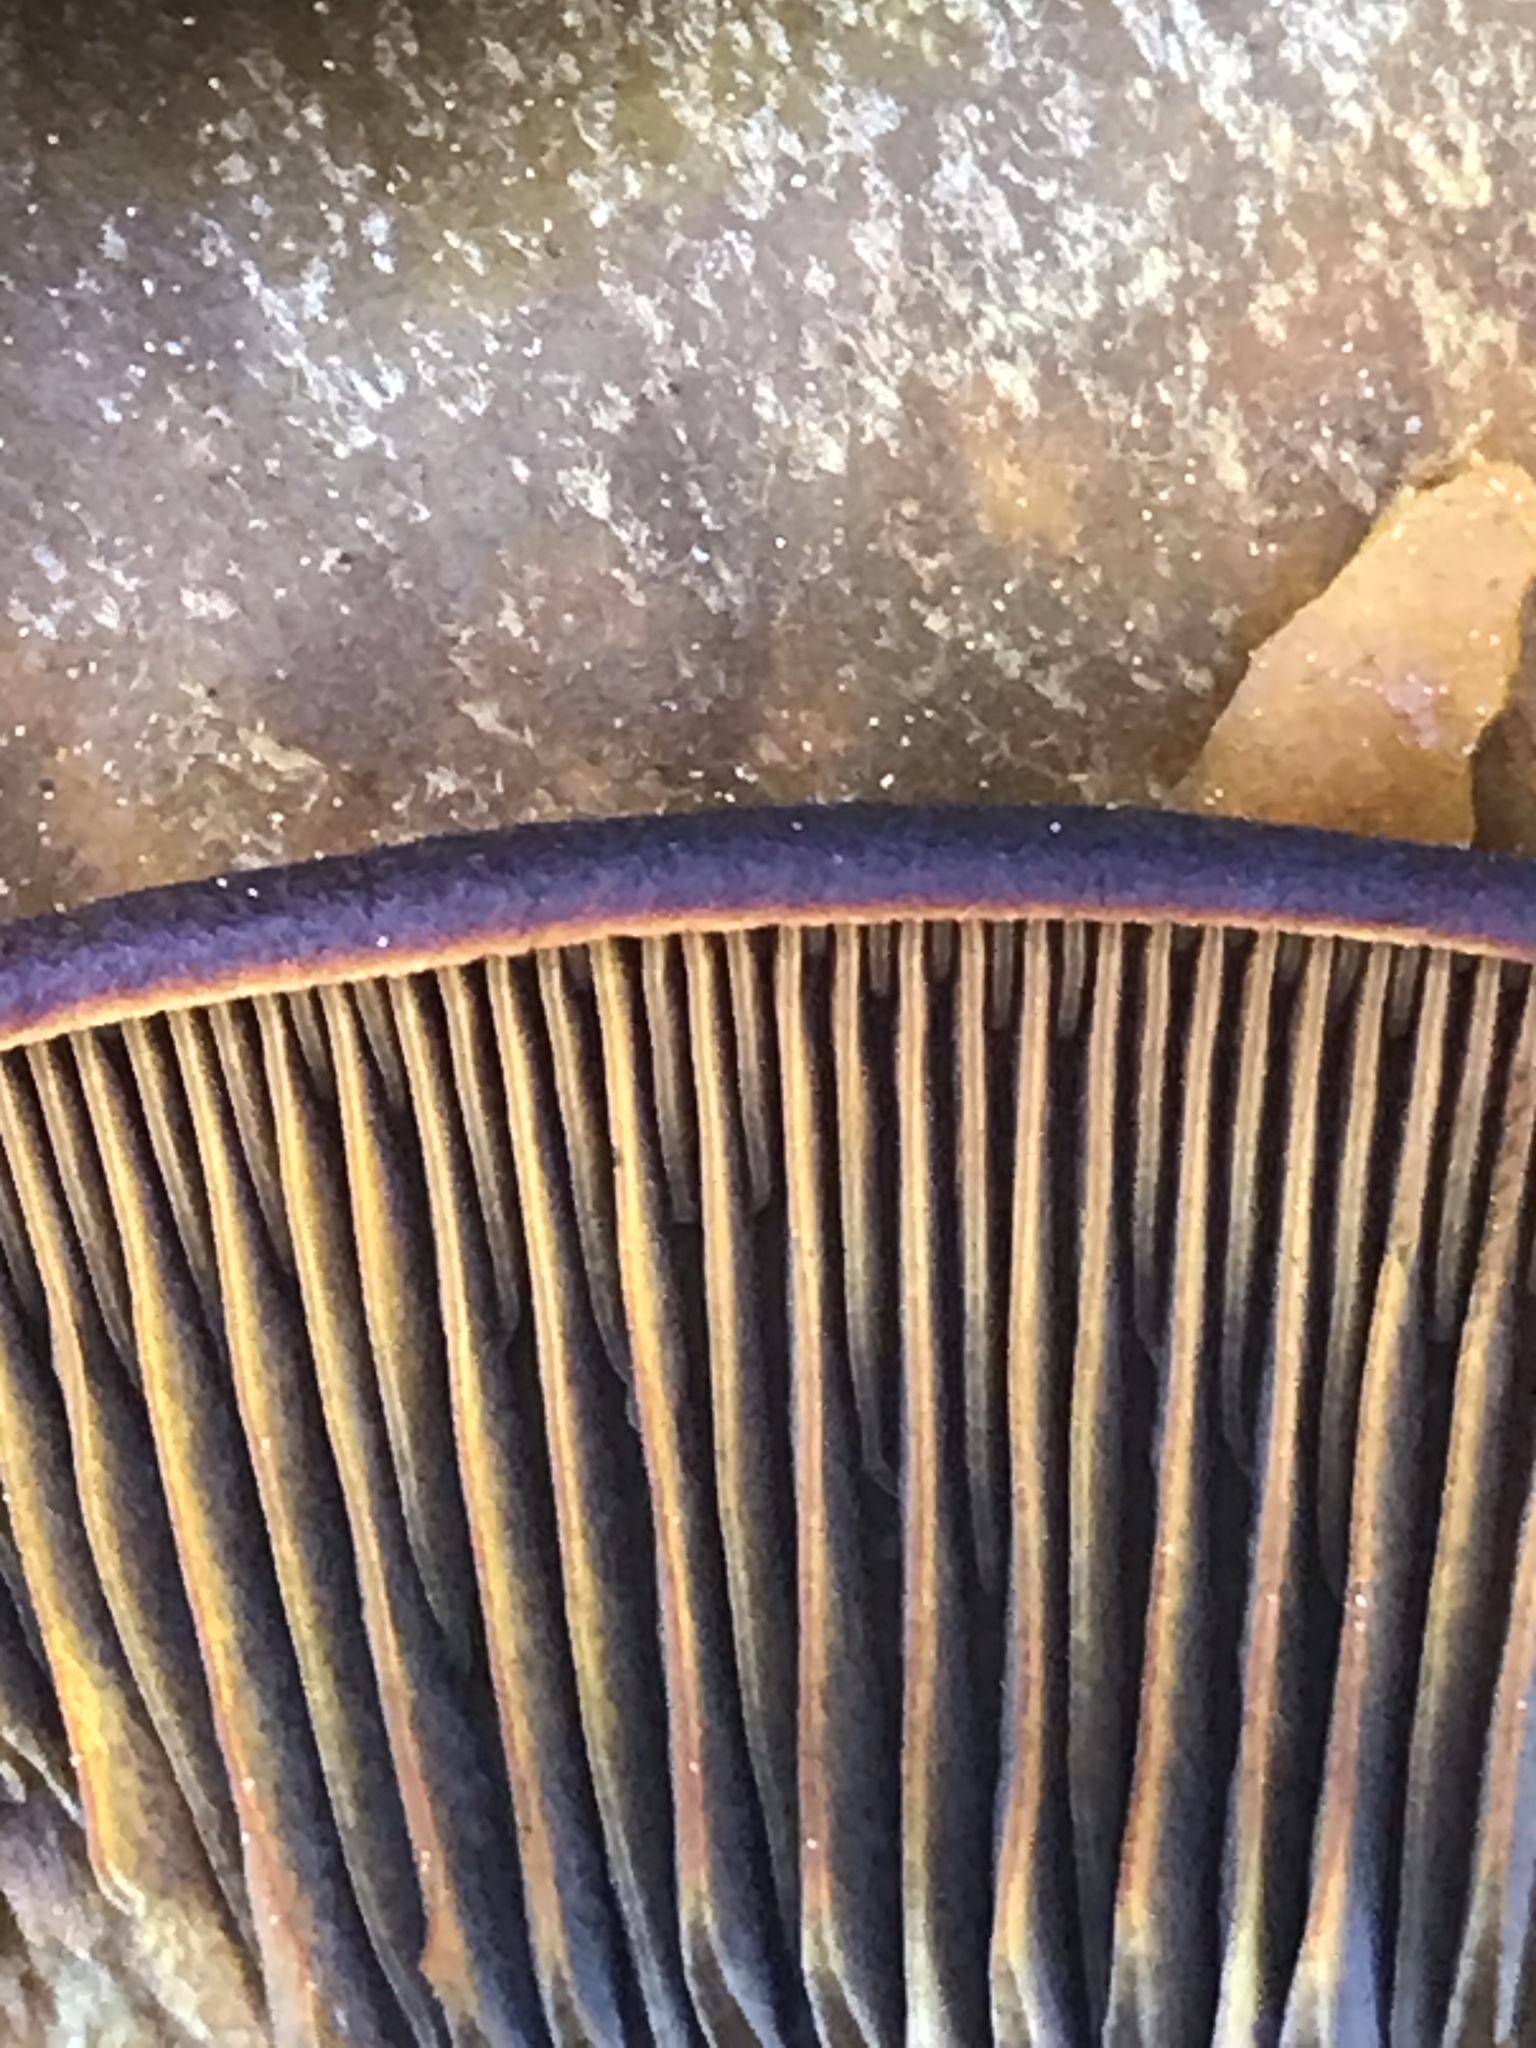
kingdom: Fungi
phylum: Basidiomycota
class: Agaricomycetes
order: Agaricales
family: Omphalotaceae
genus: Omphalotus
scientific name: Omphalotus olivascens
